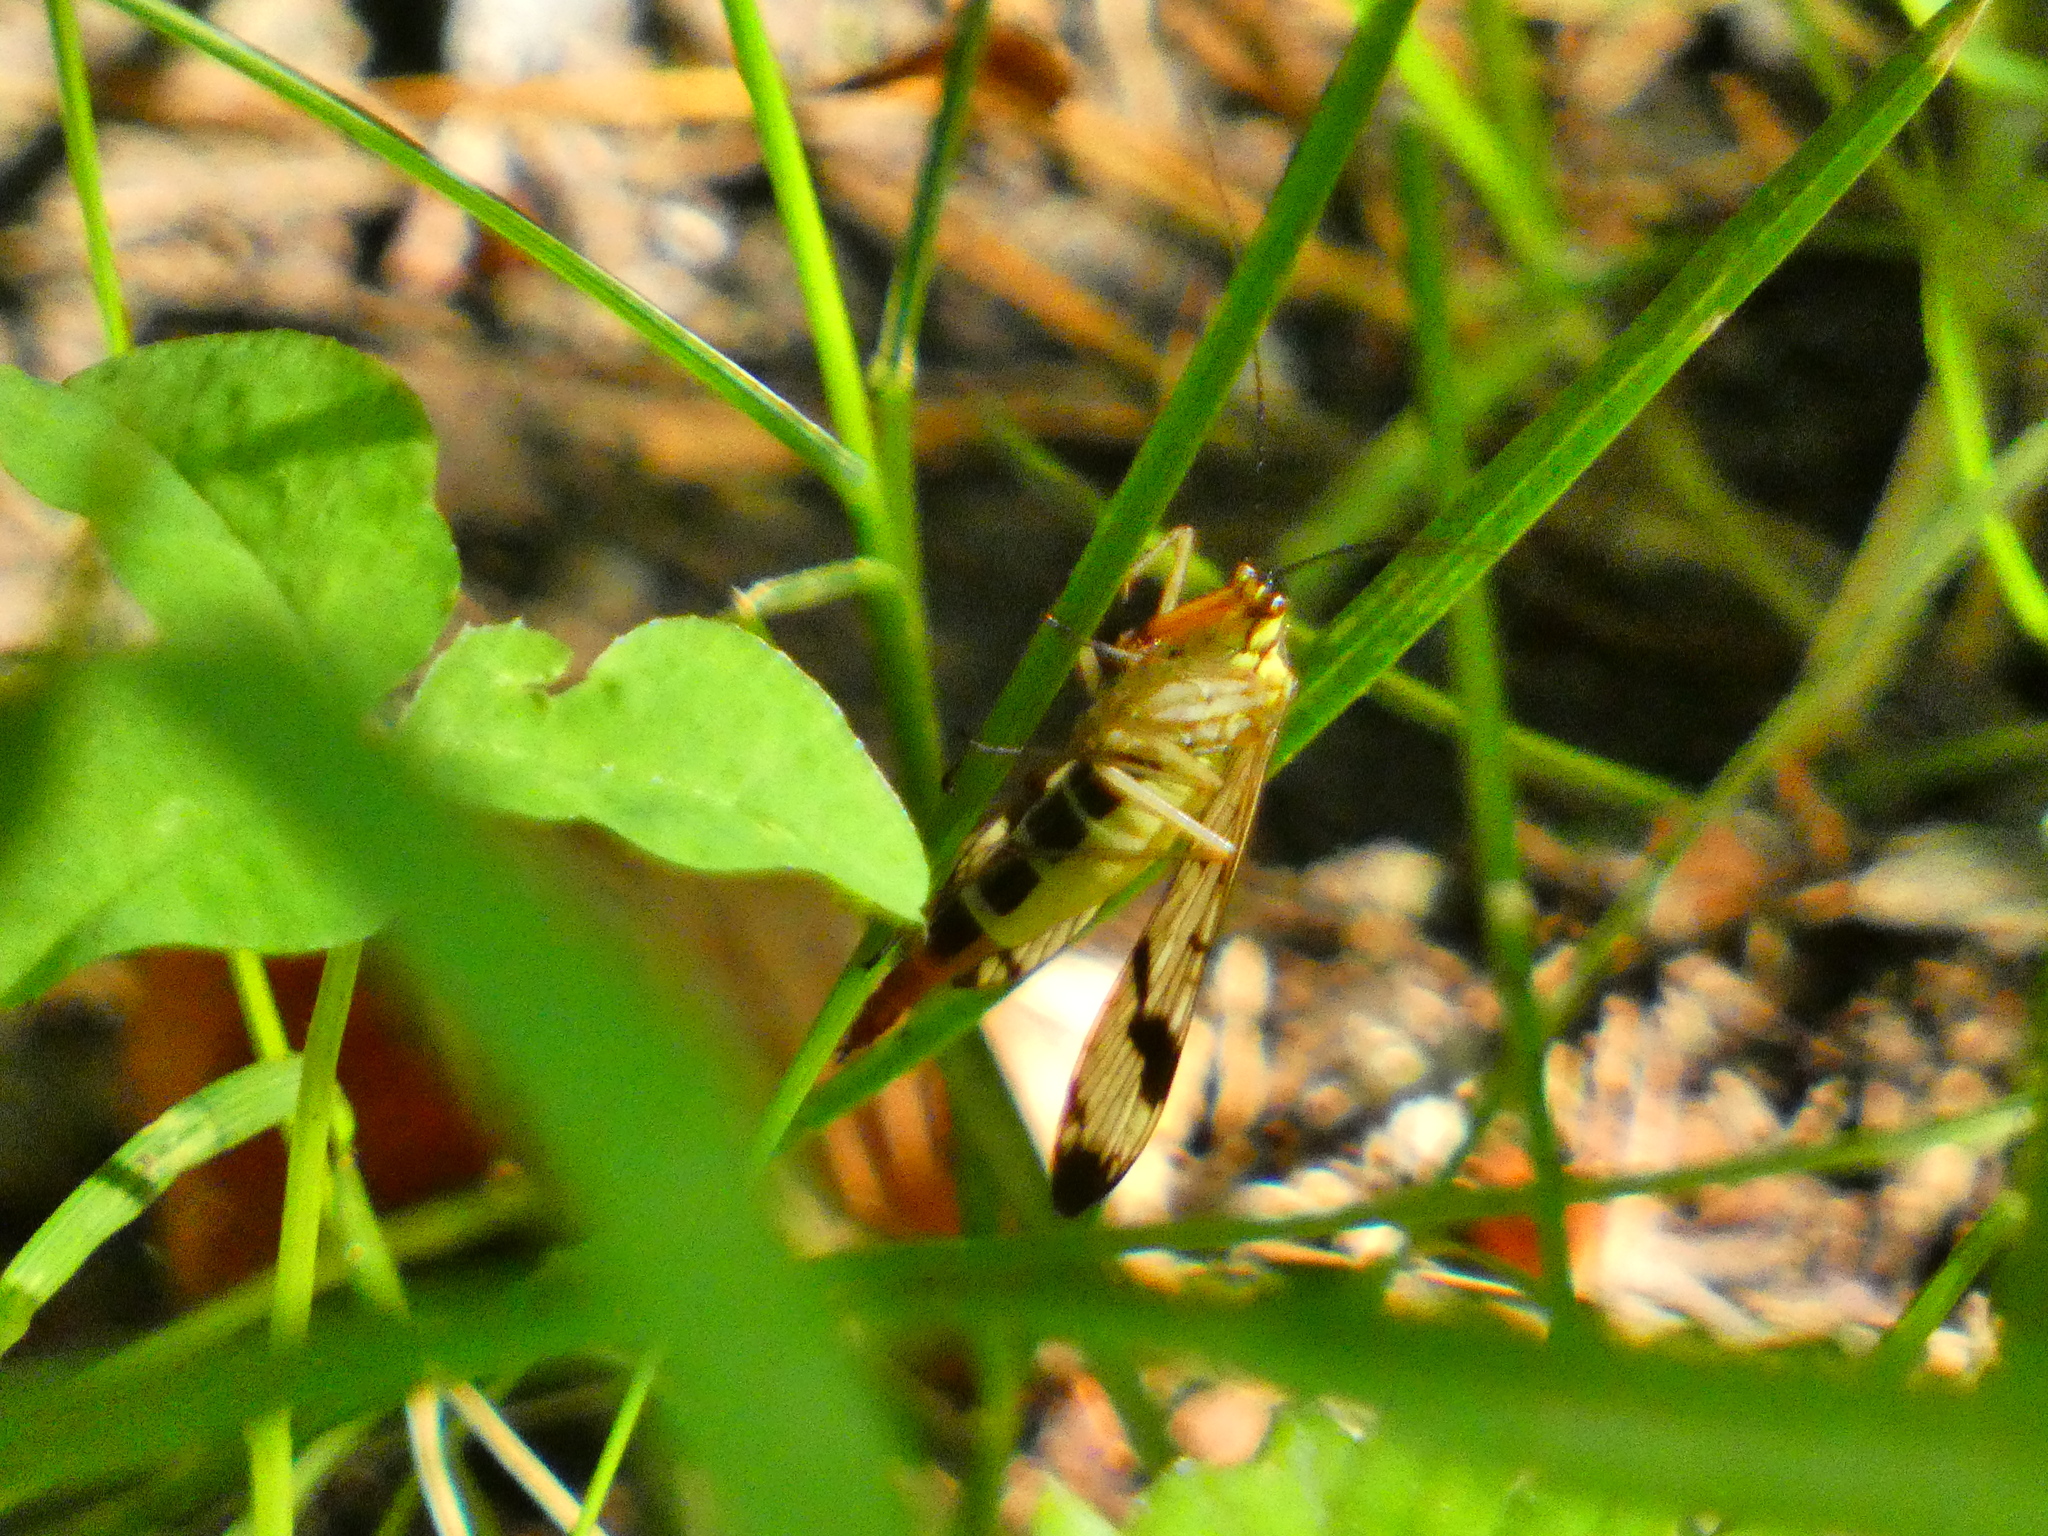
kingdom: Animalia
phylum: Arthropoda
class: Insecta
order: Mecoptera
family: Panorpidae
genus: Panorpa
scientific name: Panorpa communis
